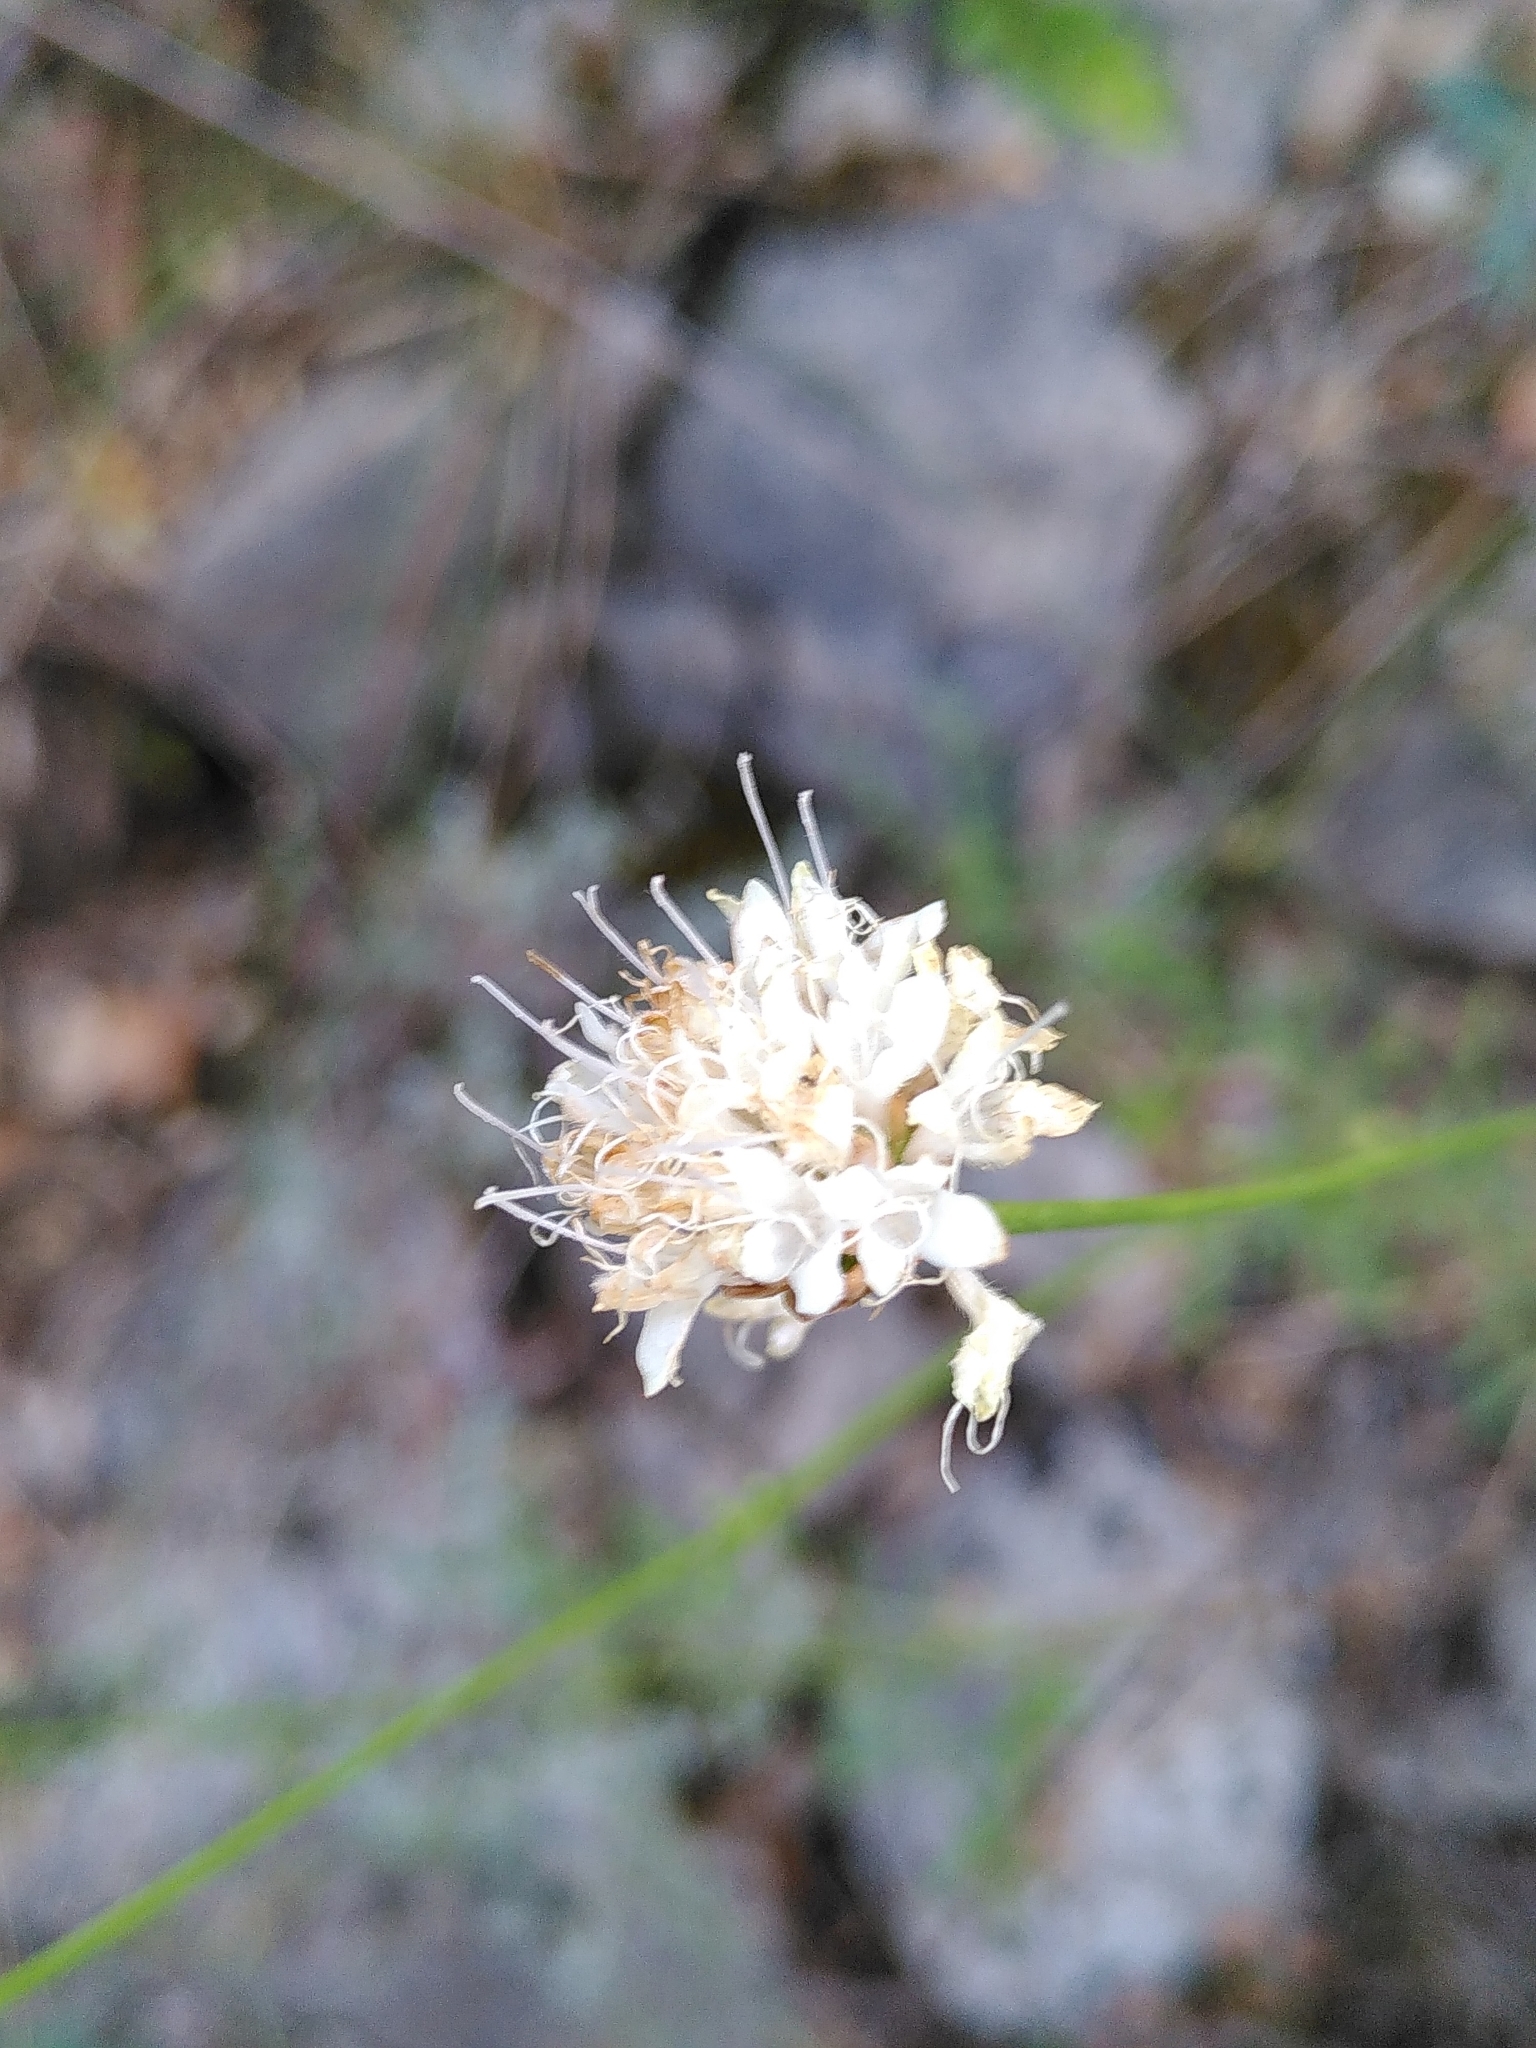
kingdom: Plantae
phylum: Tracheophyta
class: Magnoliopsida
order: Dipsacales
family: Caprifoliaceae
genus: Cephalaria
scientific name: Cephalaria leucantha
